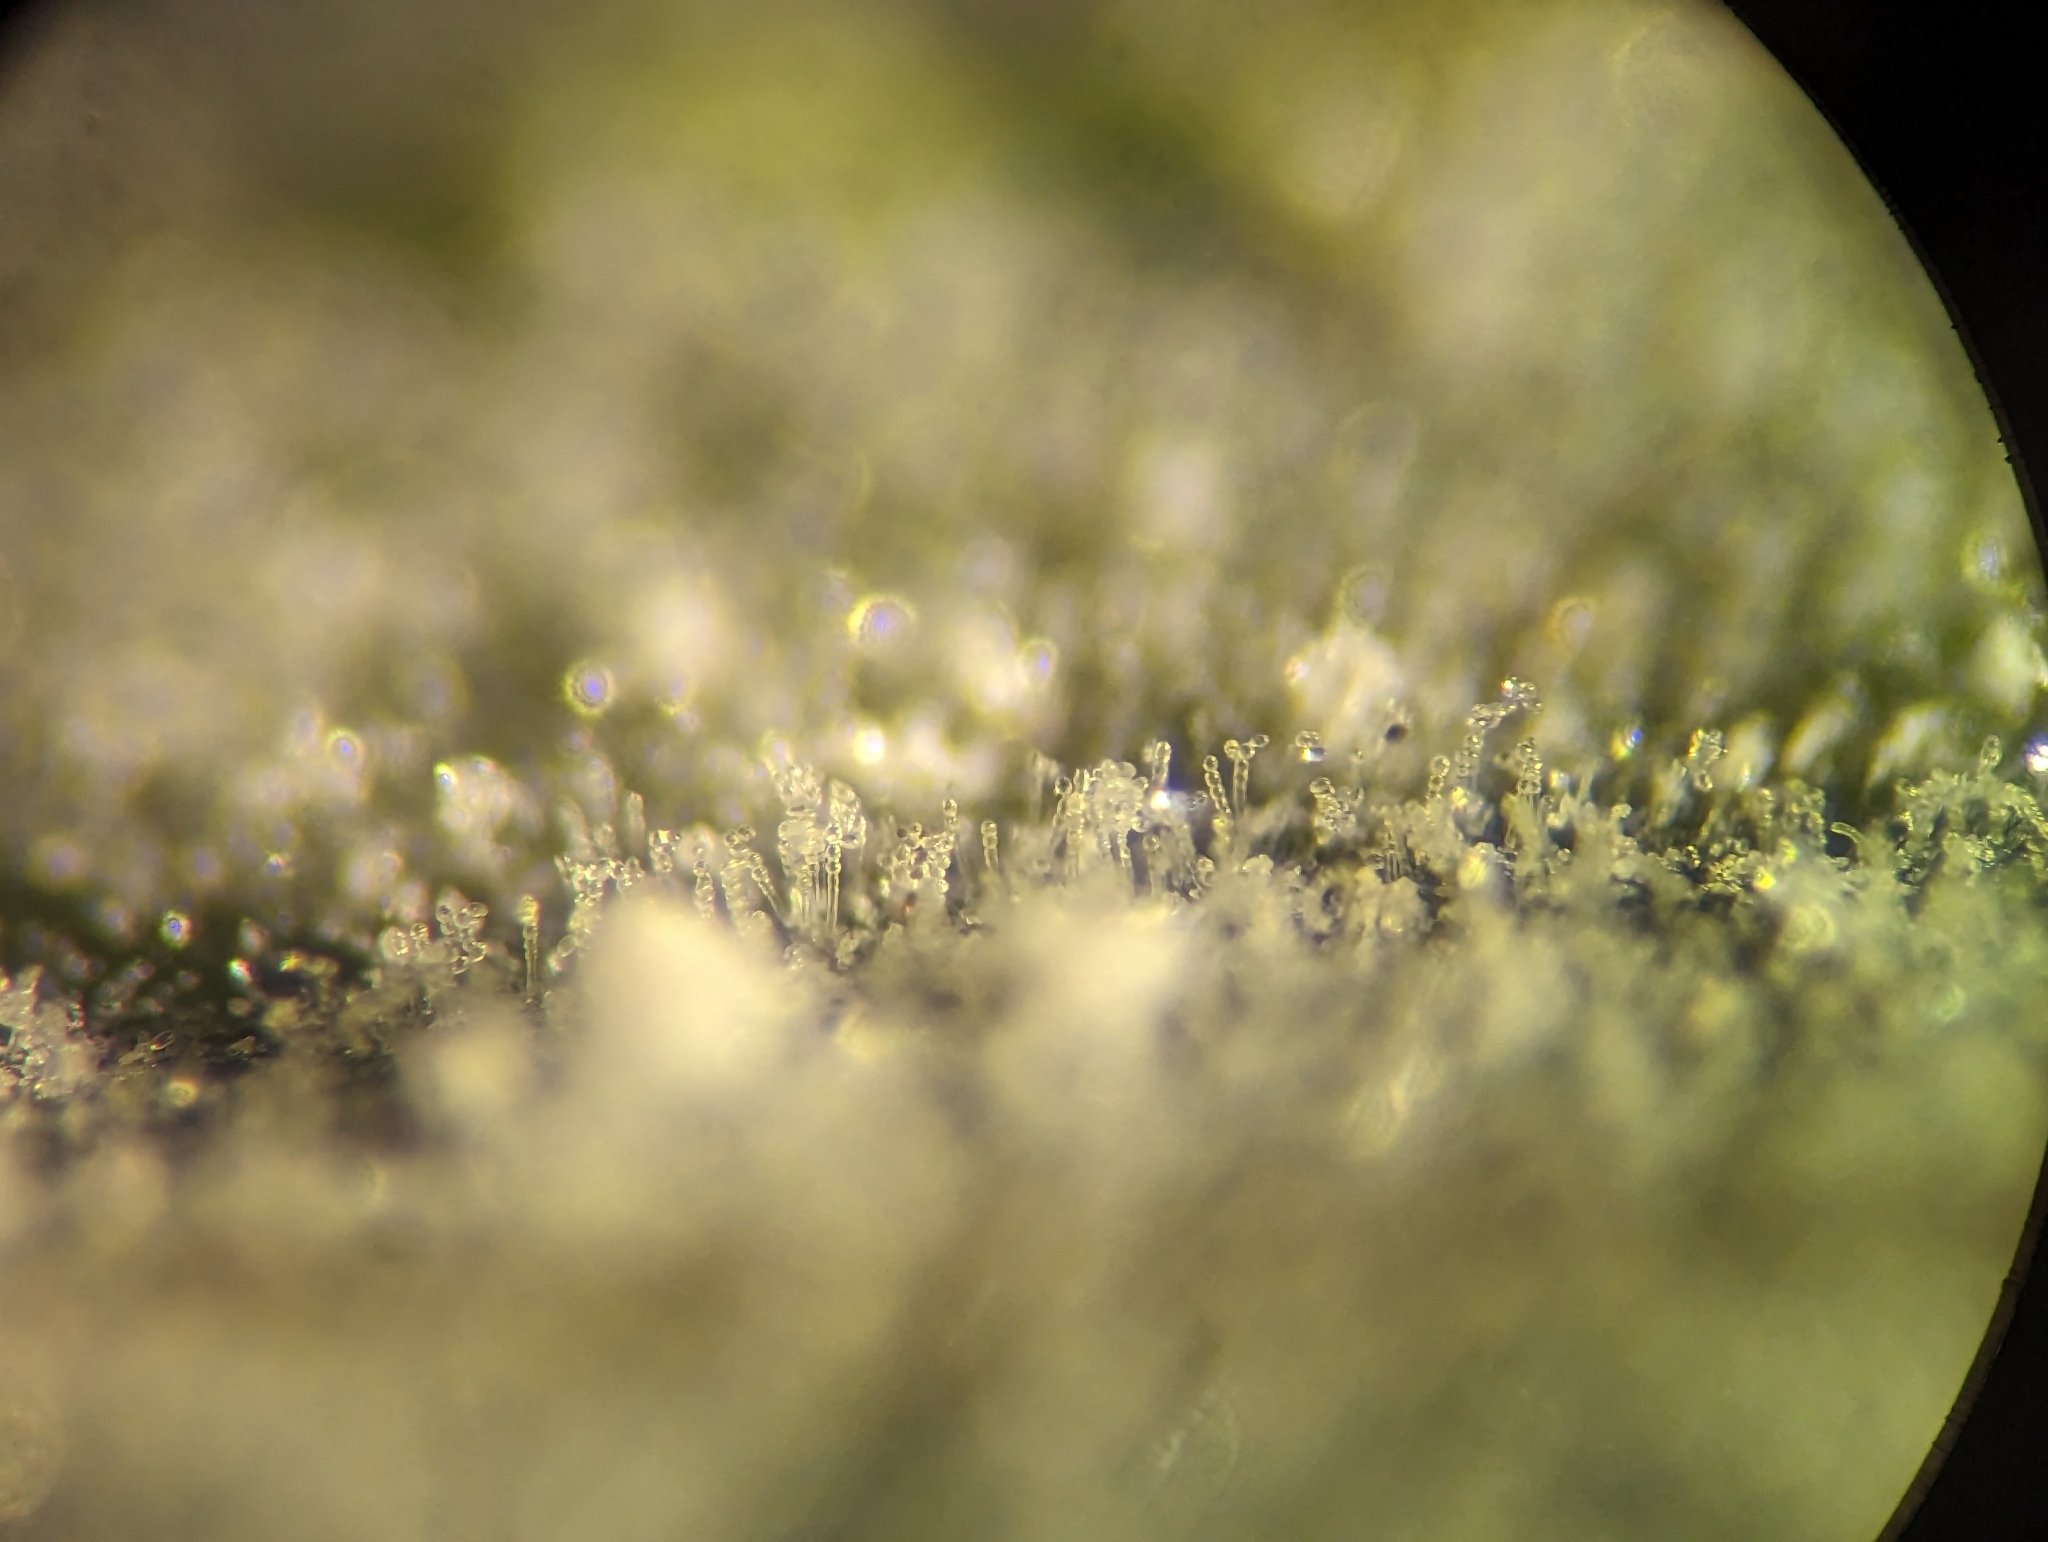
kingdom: Fungi
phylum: Ascomycota
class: Leotiomycetes
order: Helotiales
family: Erysiphaceae
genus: Sawadaea
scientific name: Sawadaea tulasnei
